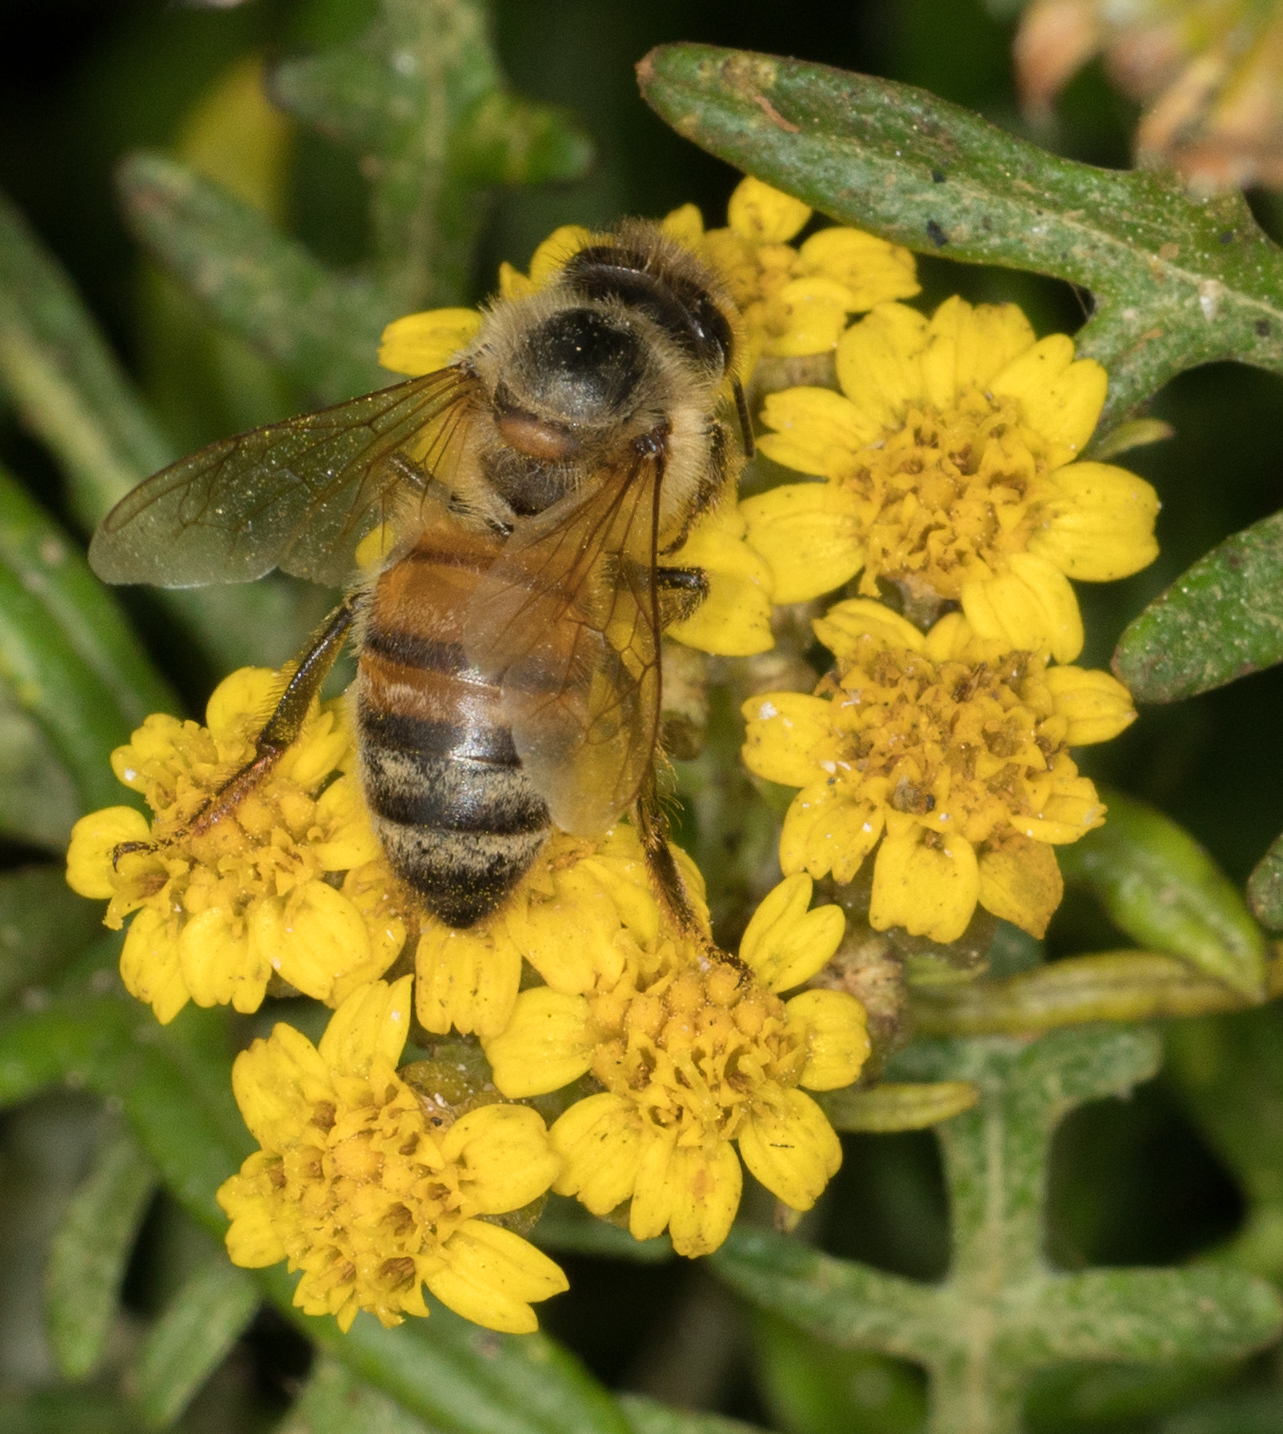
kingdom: Animalia
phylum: Arthropoda
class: Insecta
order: Hymenoptera
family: Apidae
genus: Apis
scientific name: Apis mellifera
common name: Honey bee
